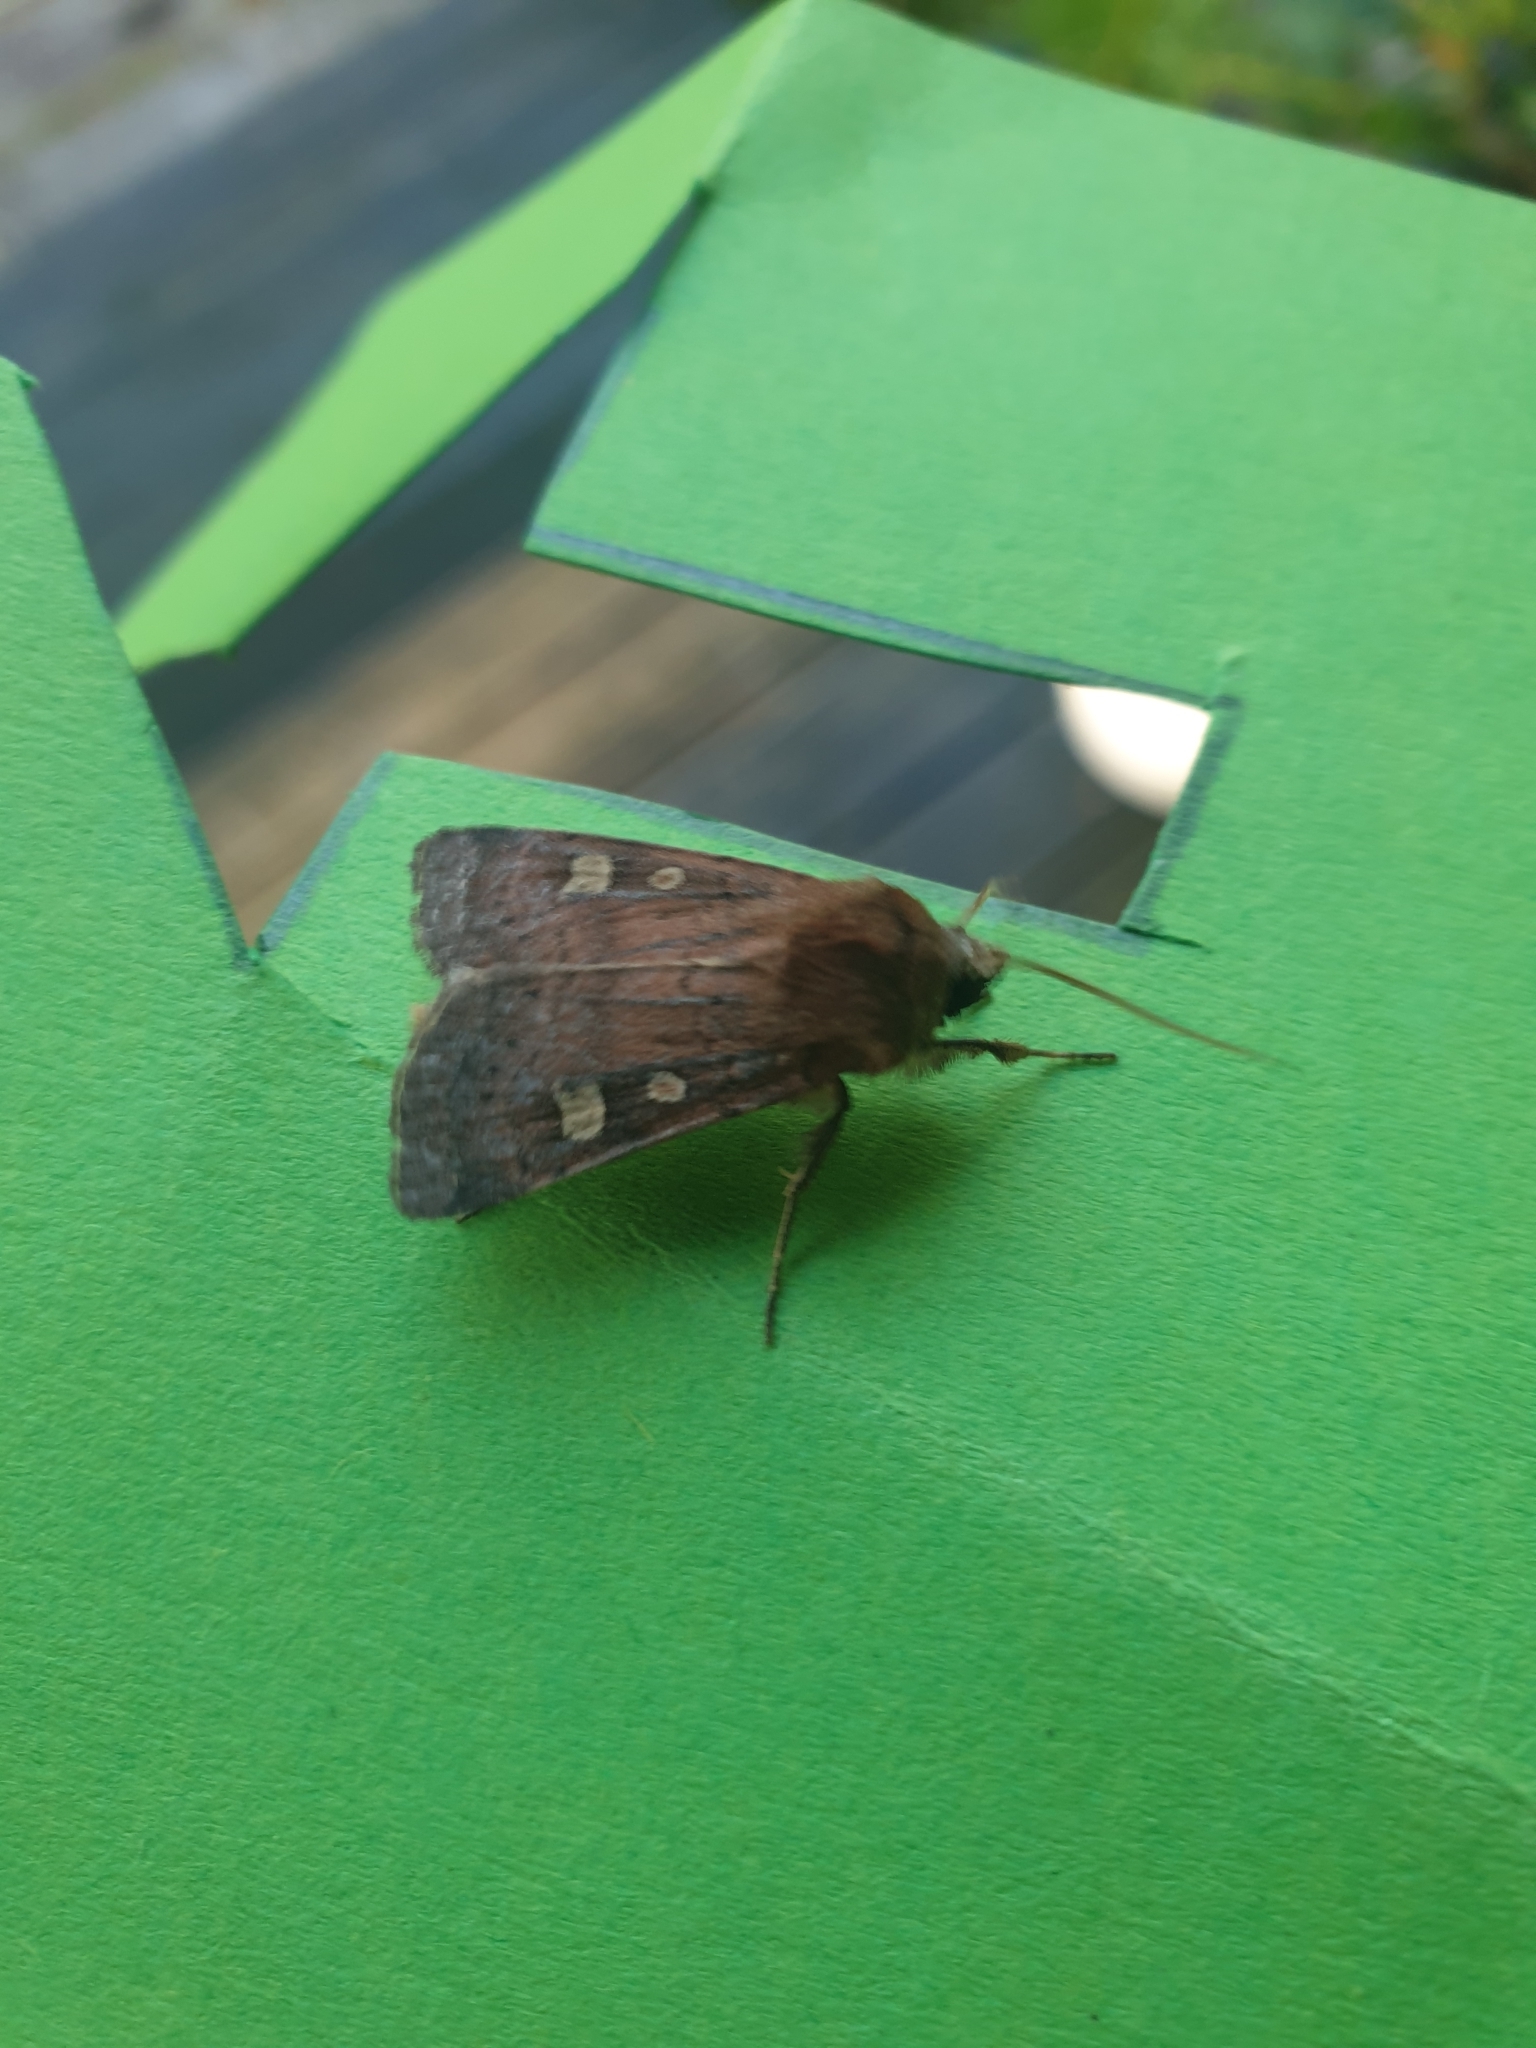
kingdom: Animalia
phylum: Arthropoda
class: Insecta
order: Lepidoptera
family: Noctuidae
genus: Xestia
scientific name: Xestia xanthographa
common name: Square-spot rustic
